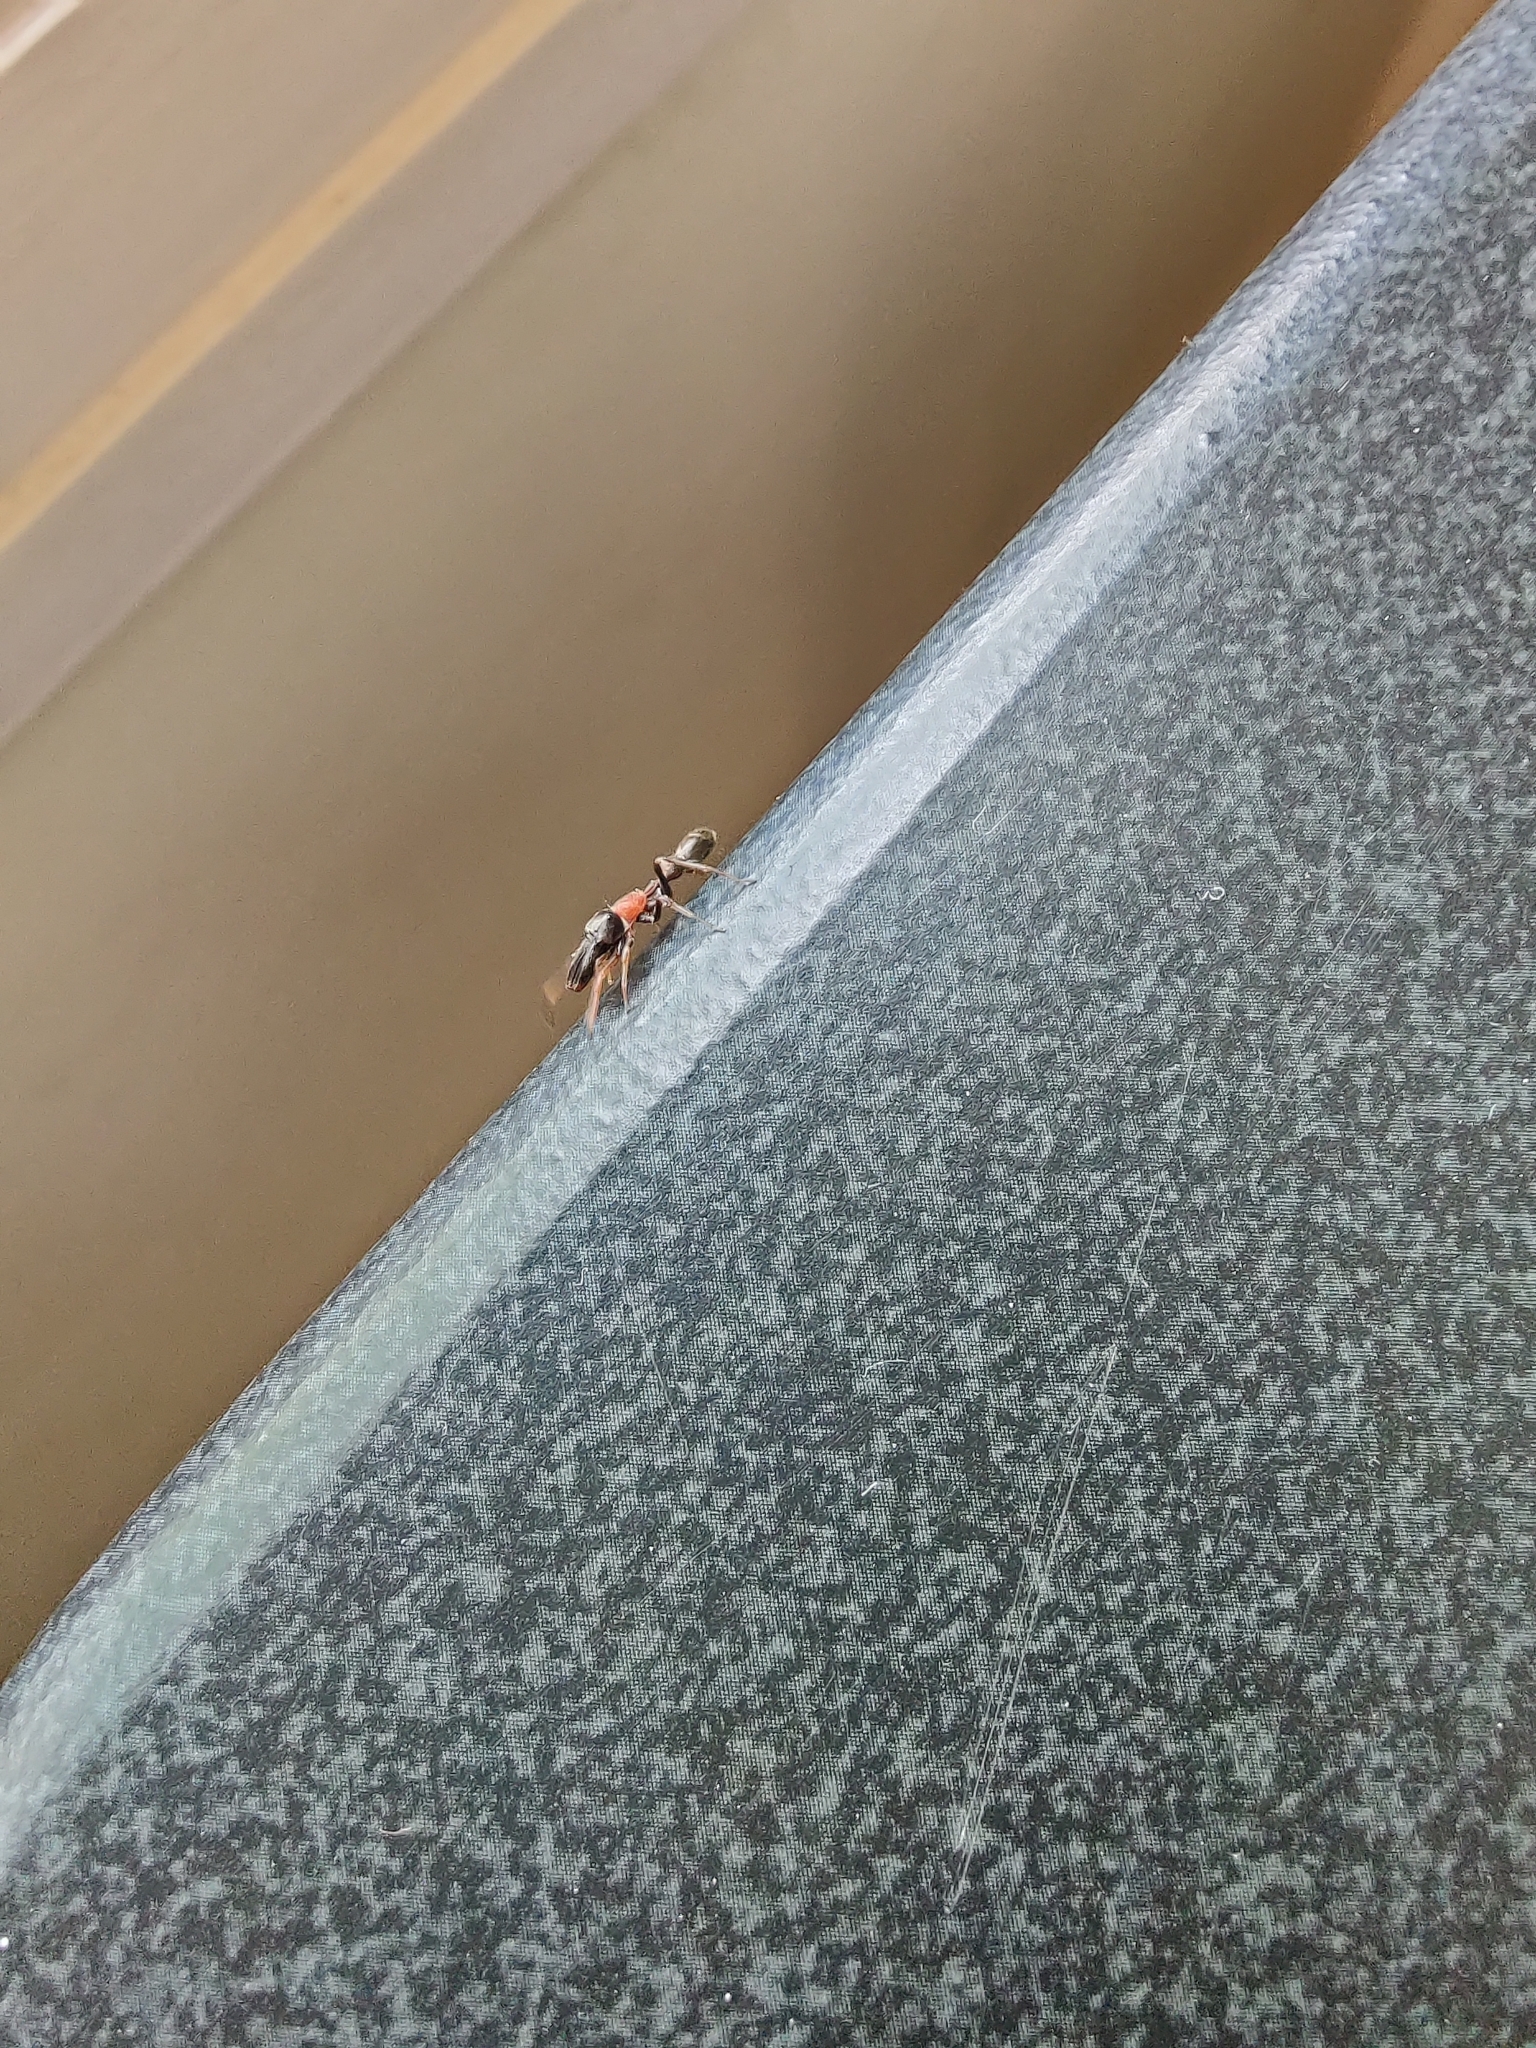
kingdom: Animalia
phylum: Arthropoda
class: Arachnida
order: Araneae
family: Salticidae
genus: Myrmarachne
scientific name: Myrmarachne melanocephala
